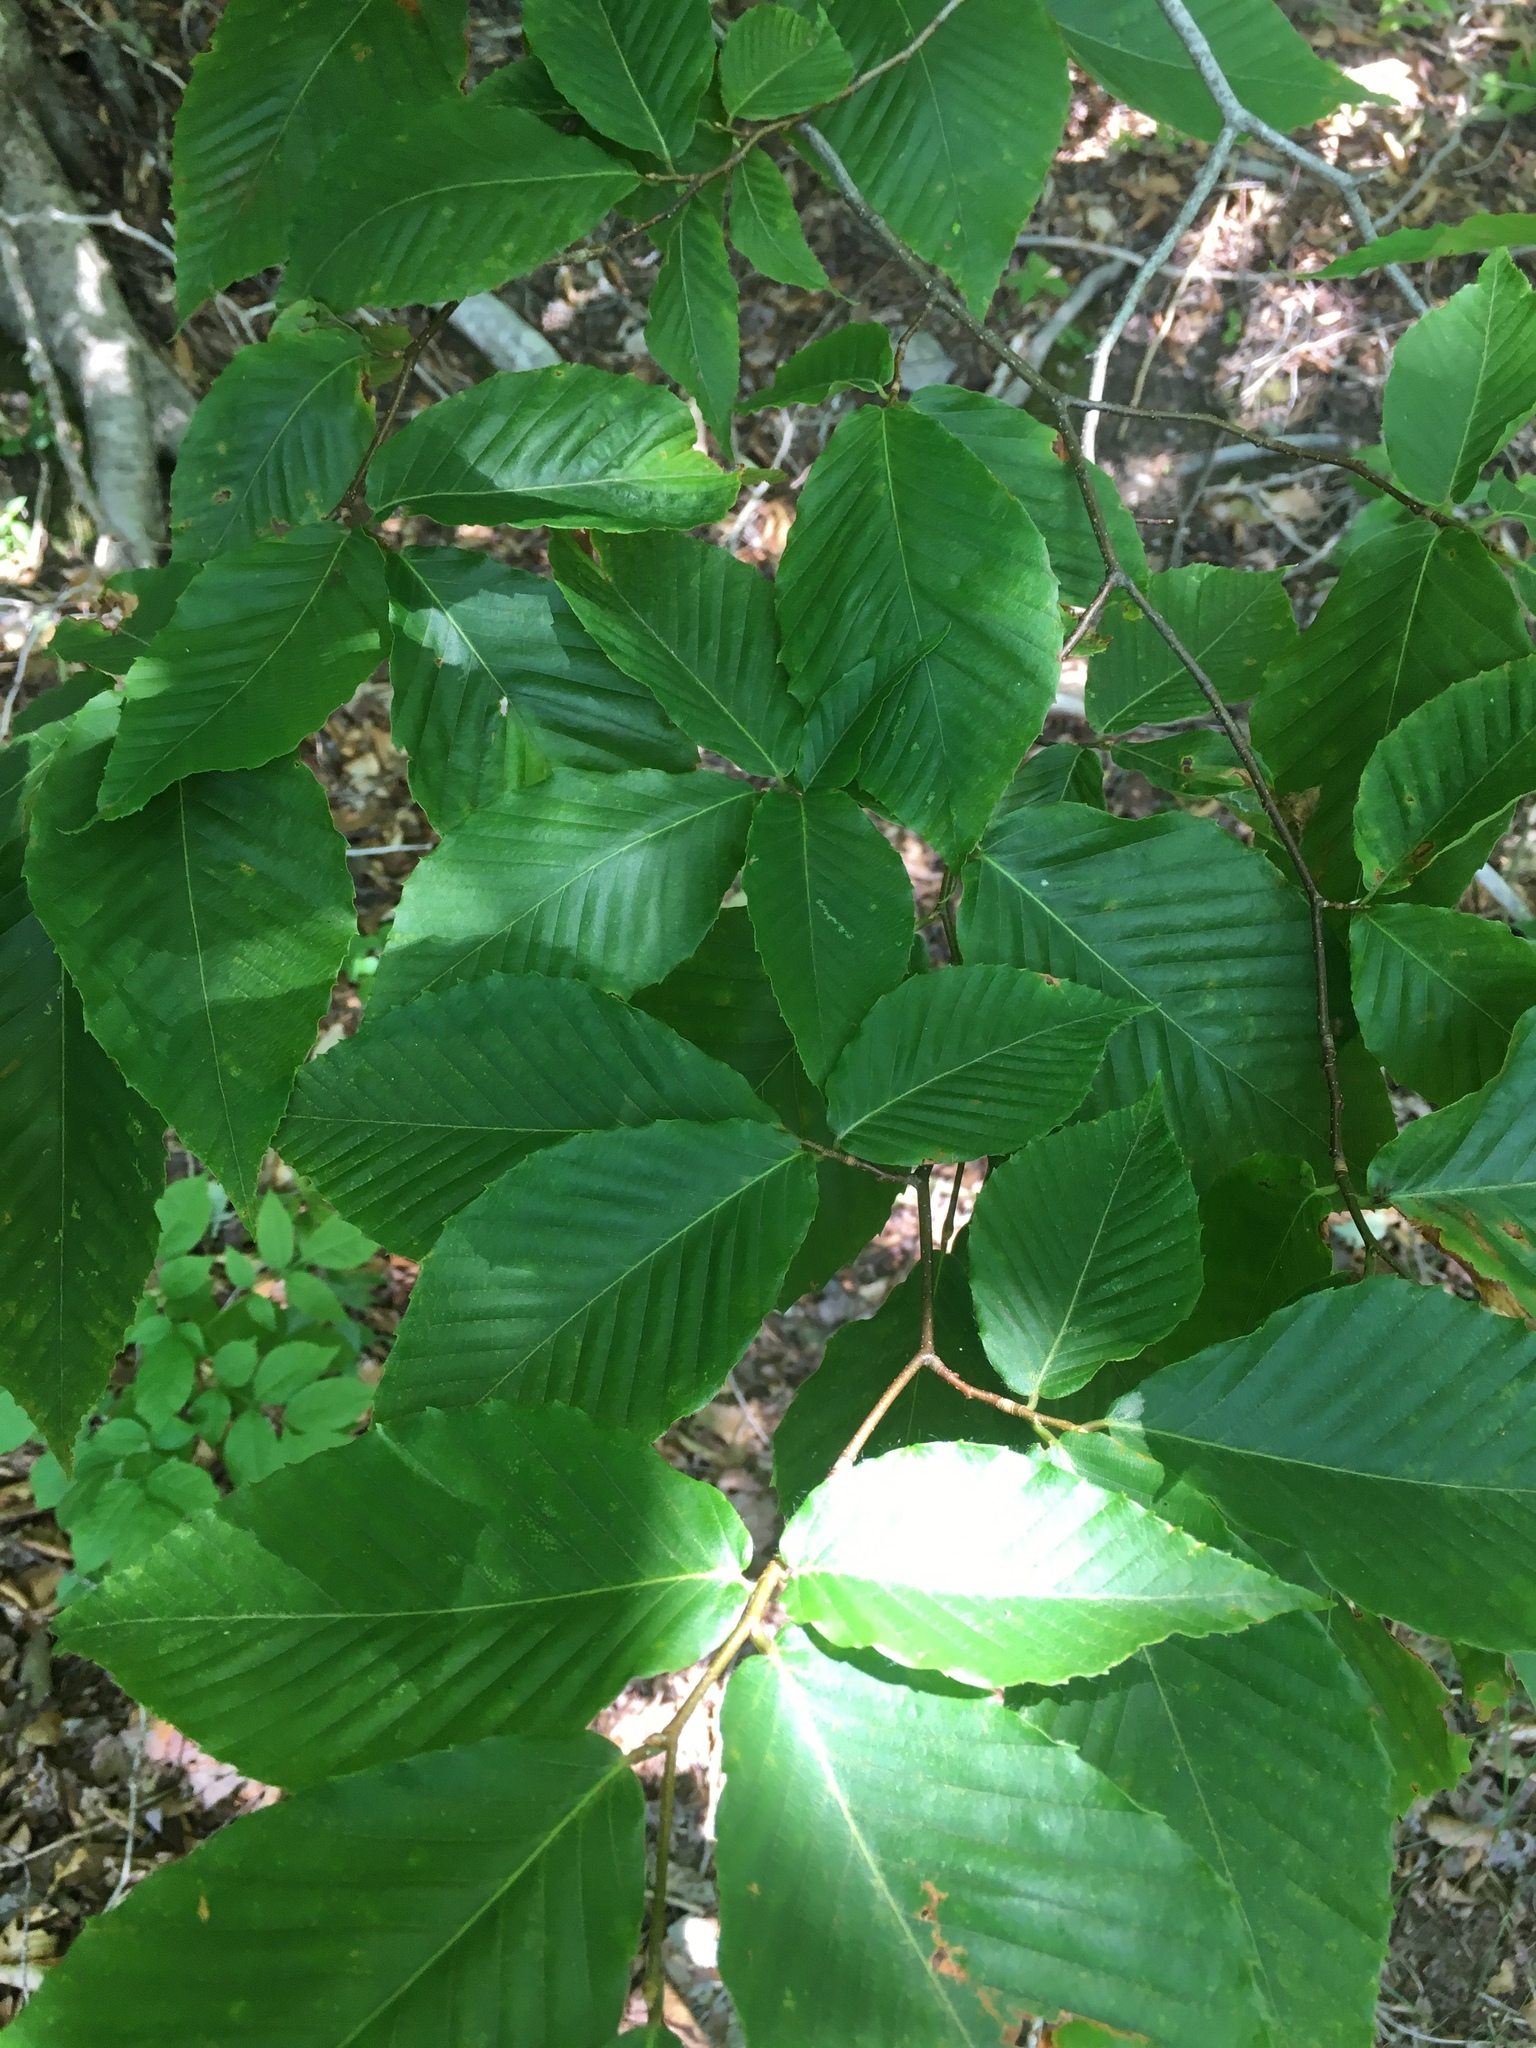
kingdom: Plantae
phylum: Tracheophyta
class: Magnoliopsida
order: Fagales
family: Fagaceae
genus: Fagus
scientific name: Fagus grandifolia
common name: American beech
